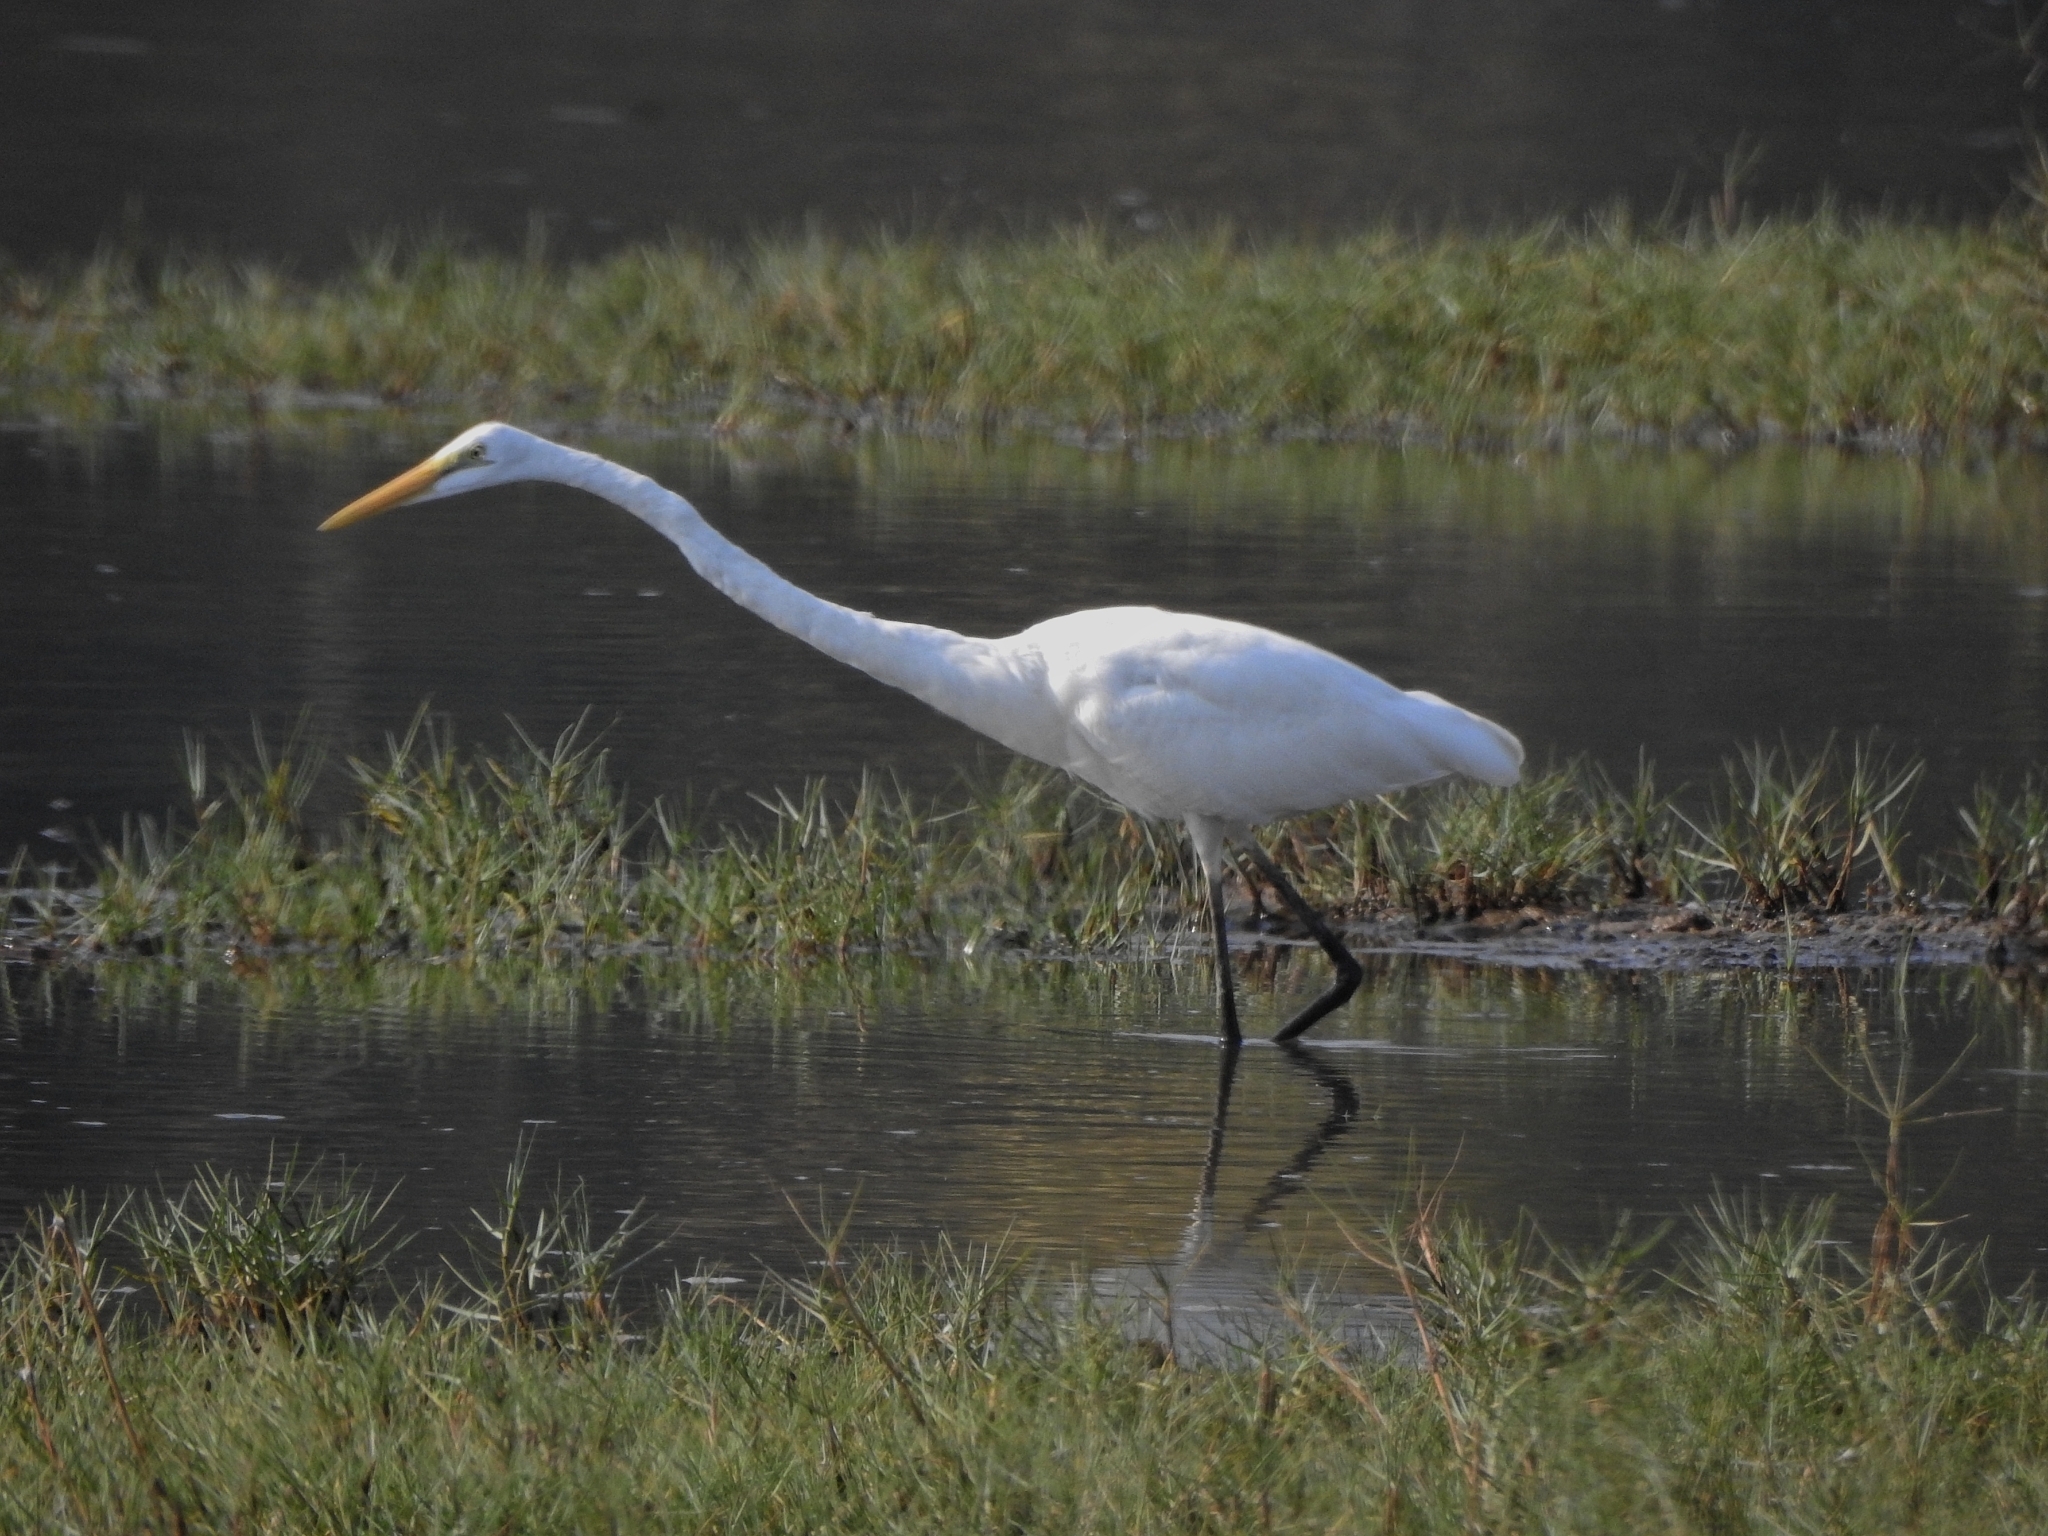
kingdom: Animalia
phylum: Chordata
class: Aves
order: Pelecaniformes
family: Ardeidae
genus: Ardea
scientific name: Ardea alba
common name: Great egret
